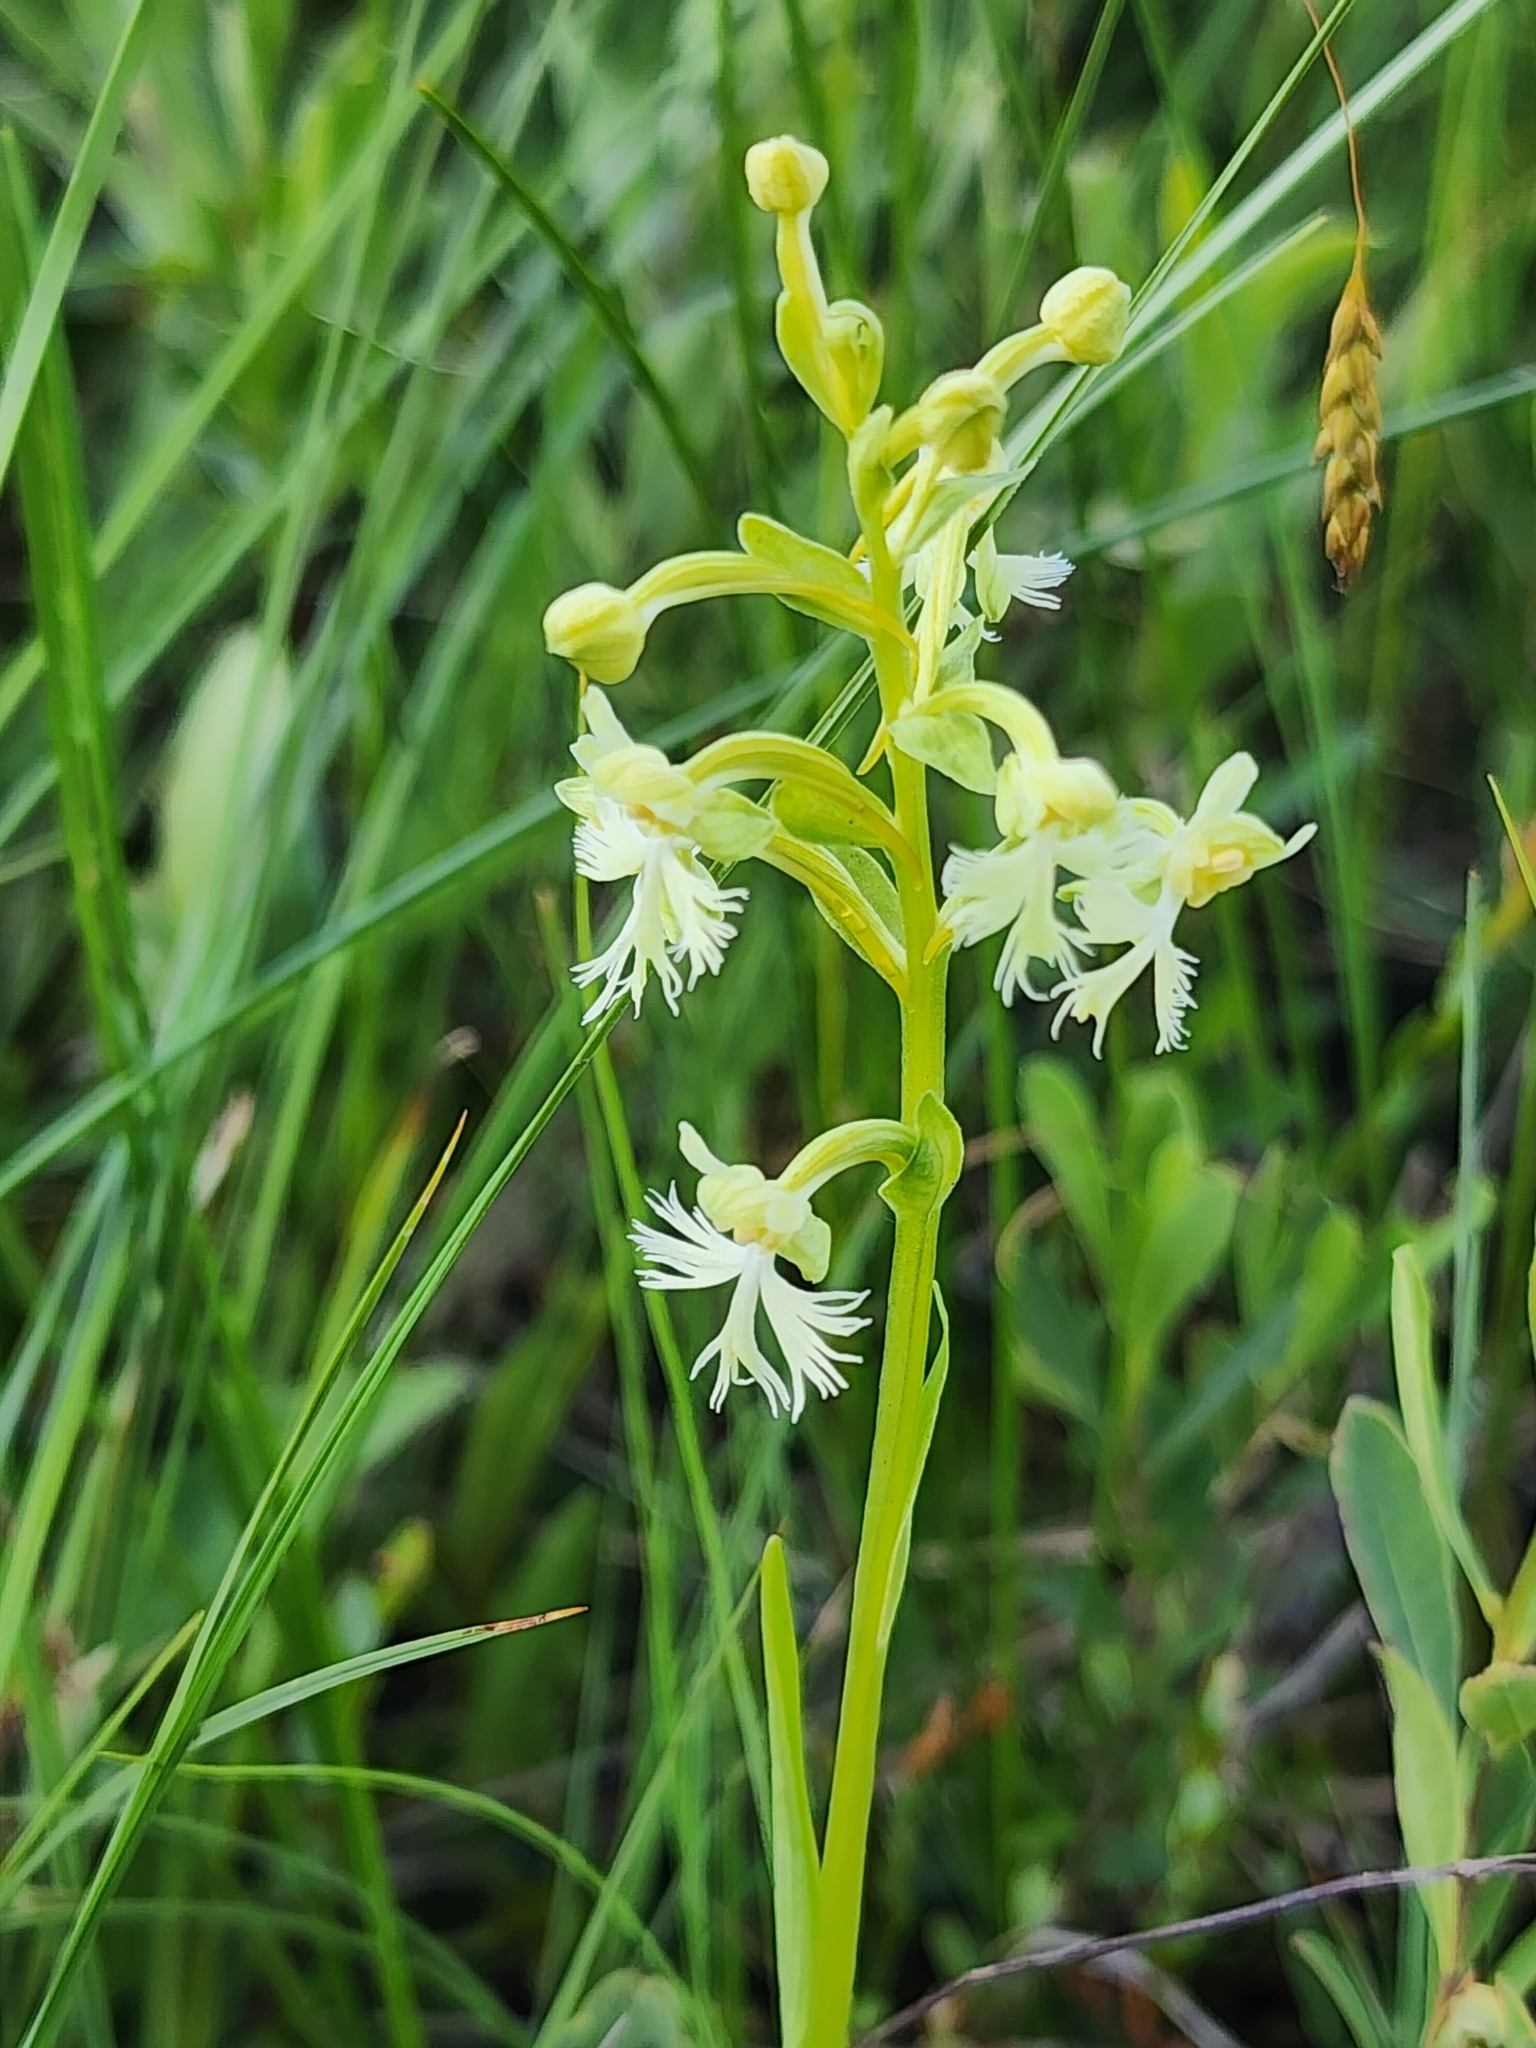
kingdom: Plantae
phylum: Tracheophyta
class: Liliopsida
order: Asparagales
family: Orchidaceae
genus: Platanthera
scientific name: Platanthera lacera
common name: Green fringed orchid
